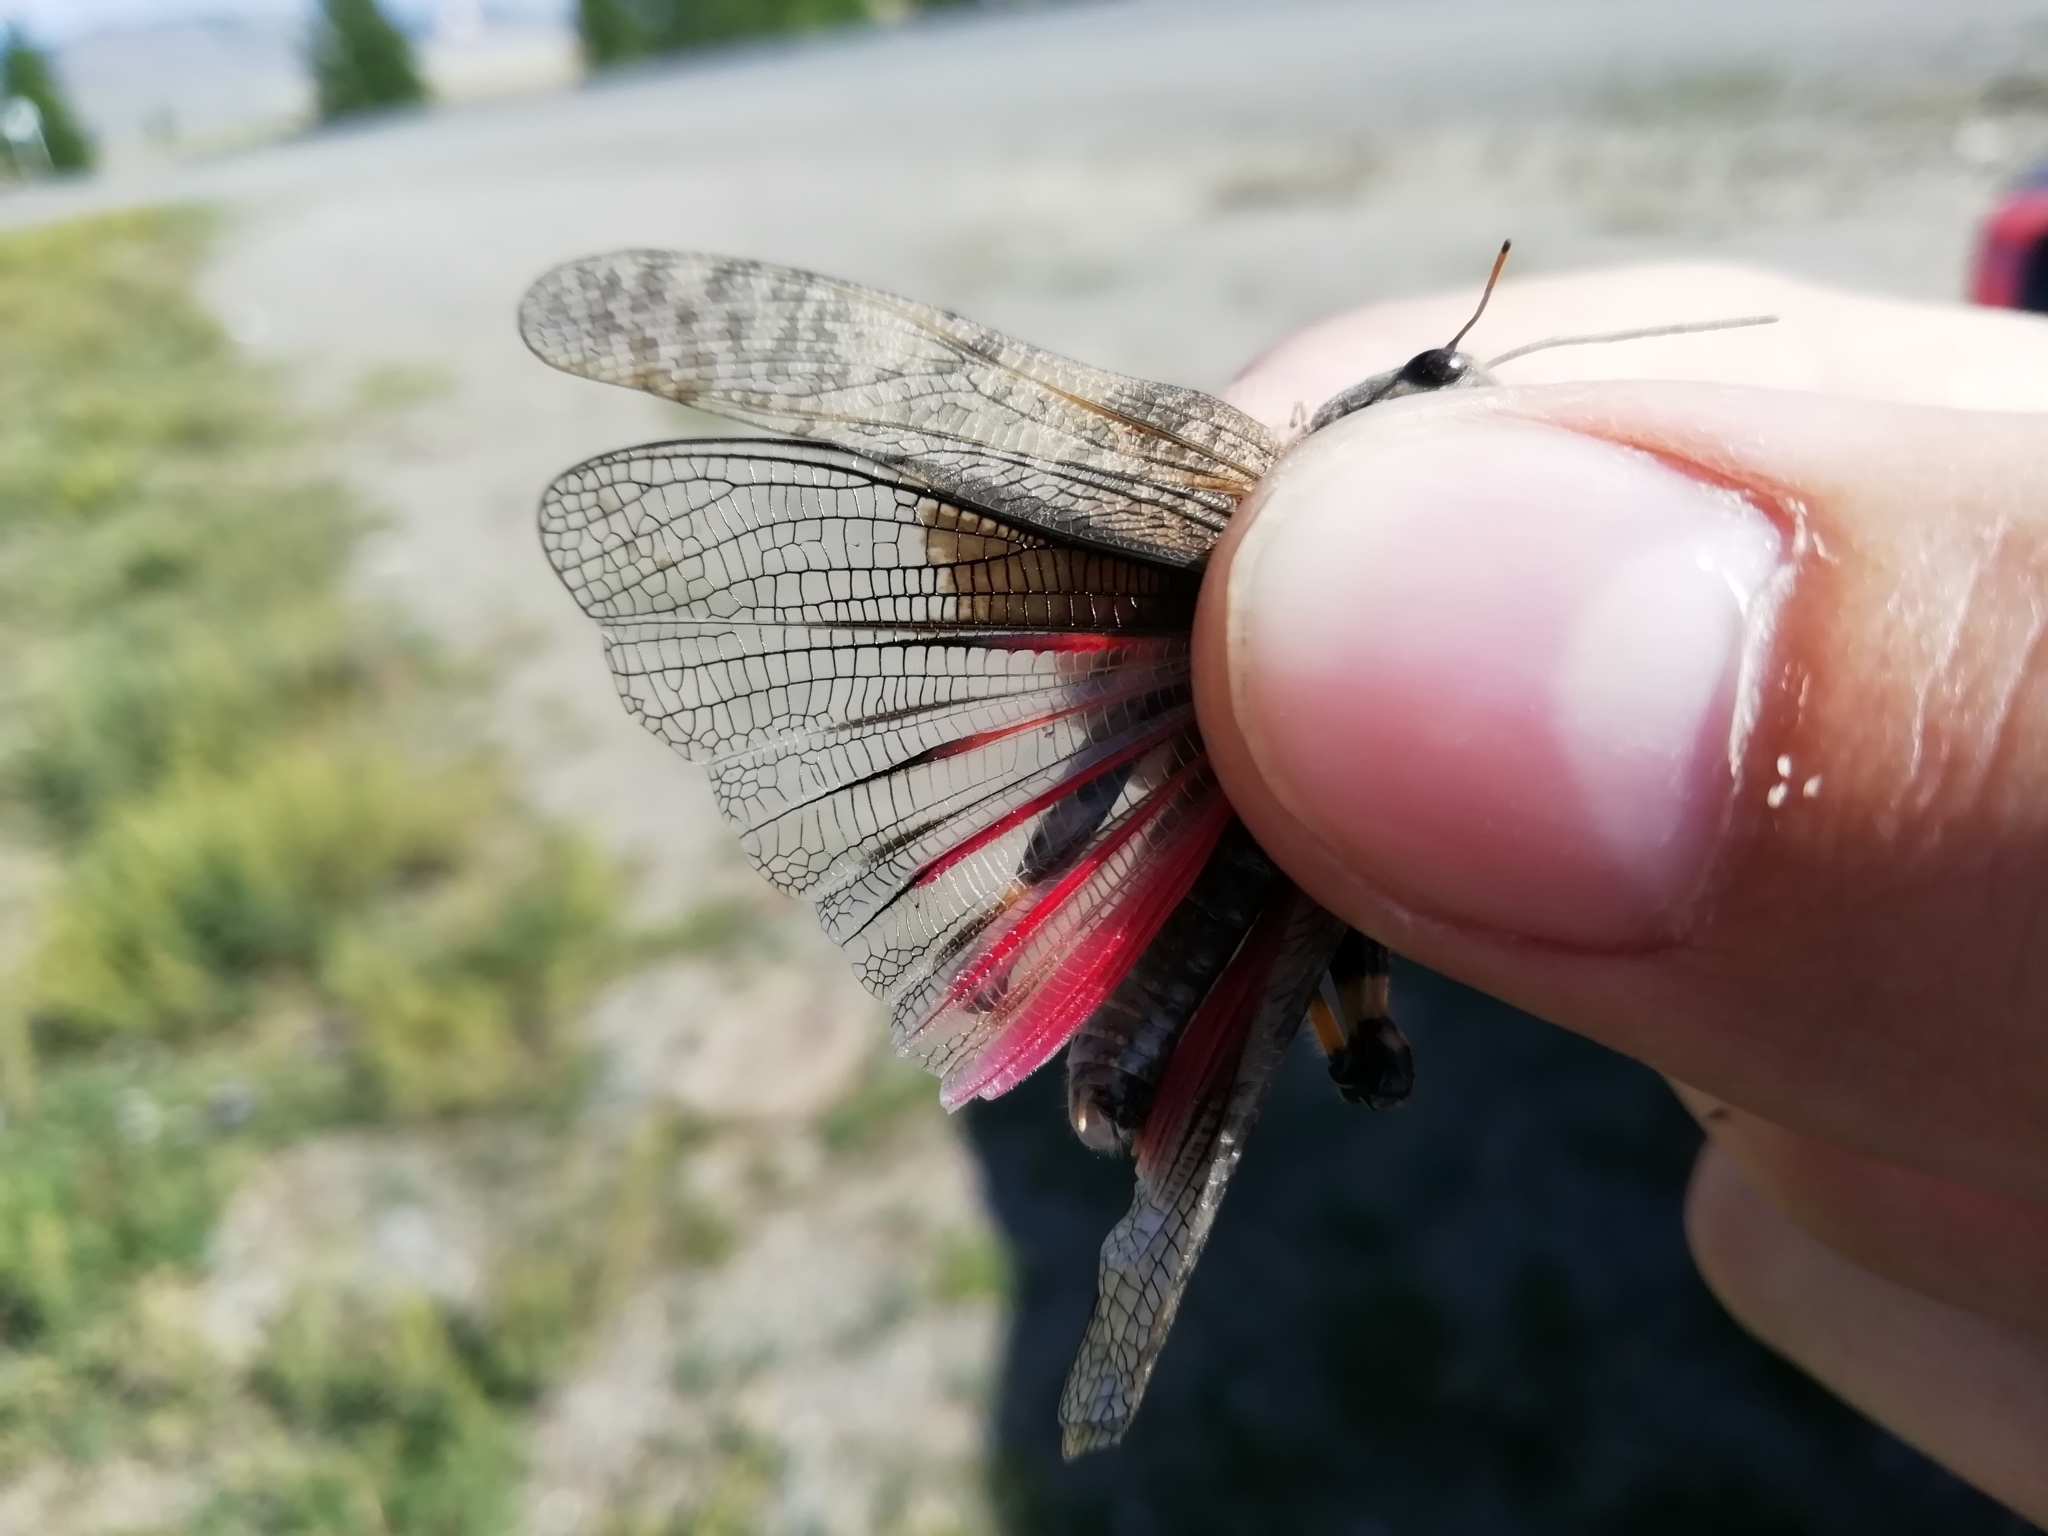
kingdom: Animalia
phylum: Arthropoda
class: Insecta
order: Orthoptera
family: Acrididae
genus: Bryodemella
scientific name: Bryodemella holdereri
